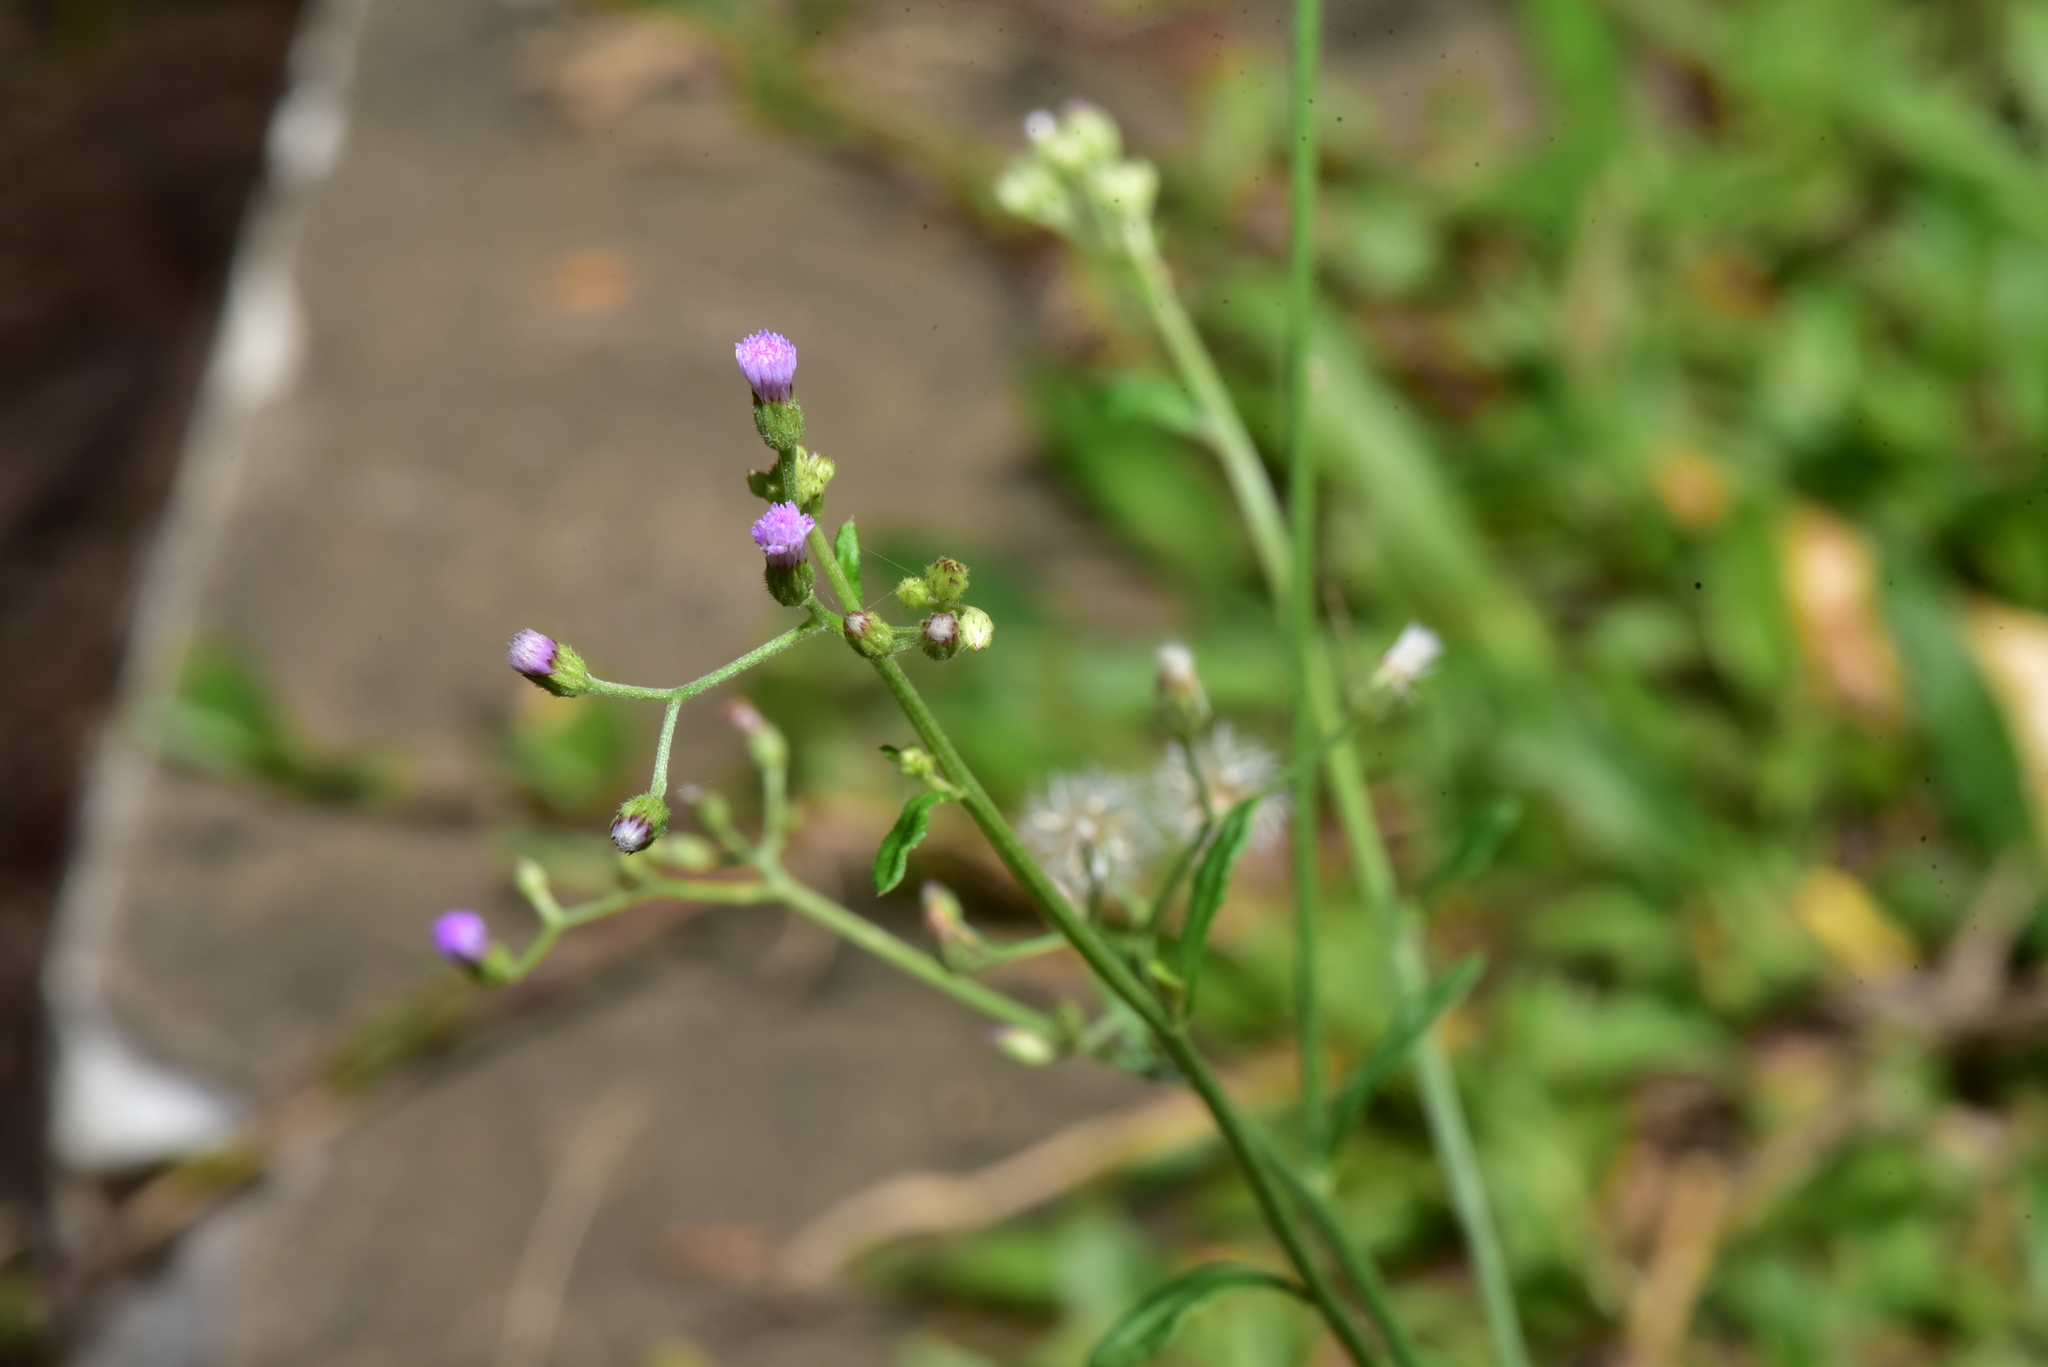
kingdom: Plantae
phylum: Tracheophyta
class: Magnoliopsida
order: Asterales
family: Asteraceae
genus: Cyanthillium
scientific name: Cyanthillium cinereum
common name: Little ironweed
